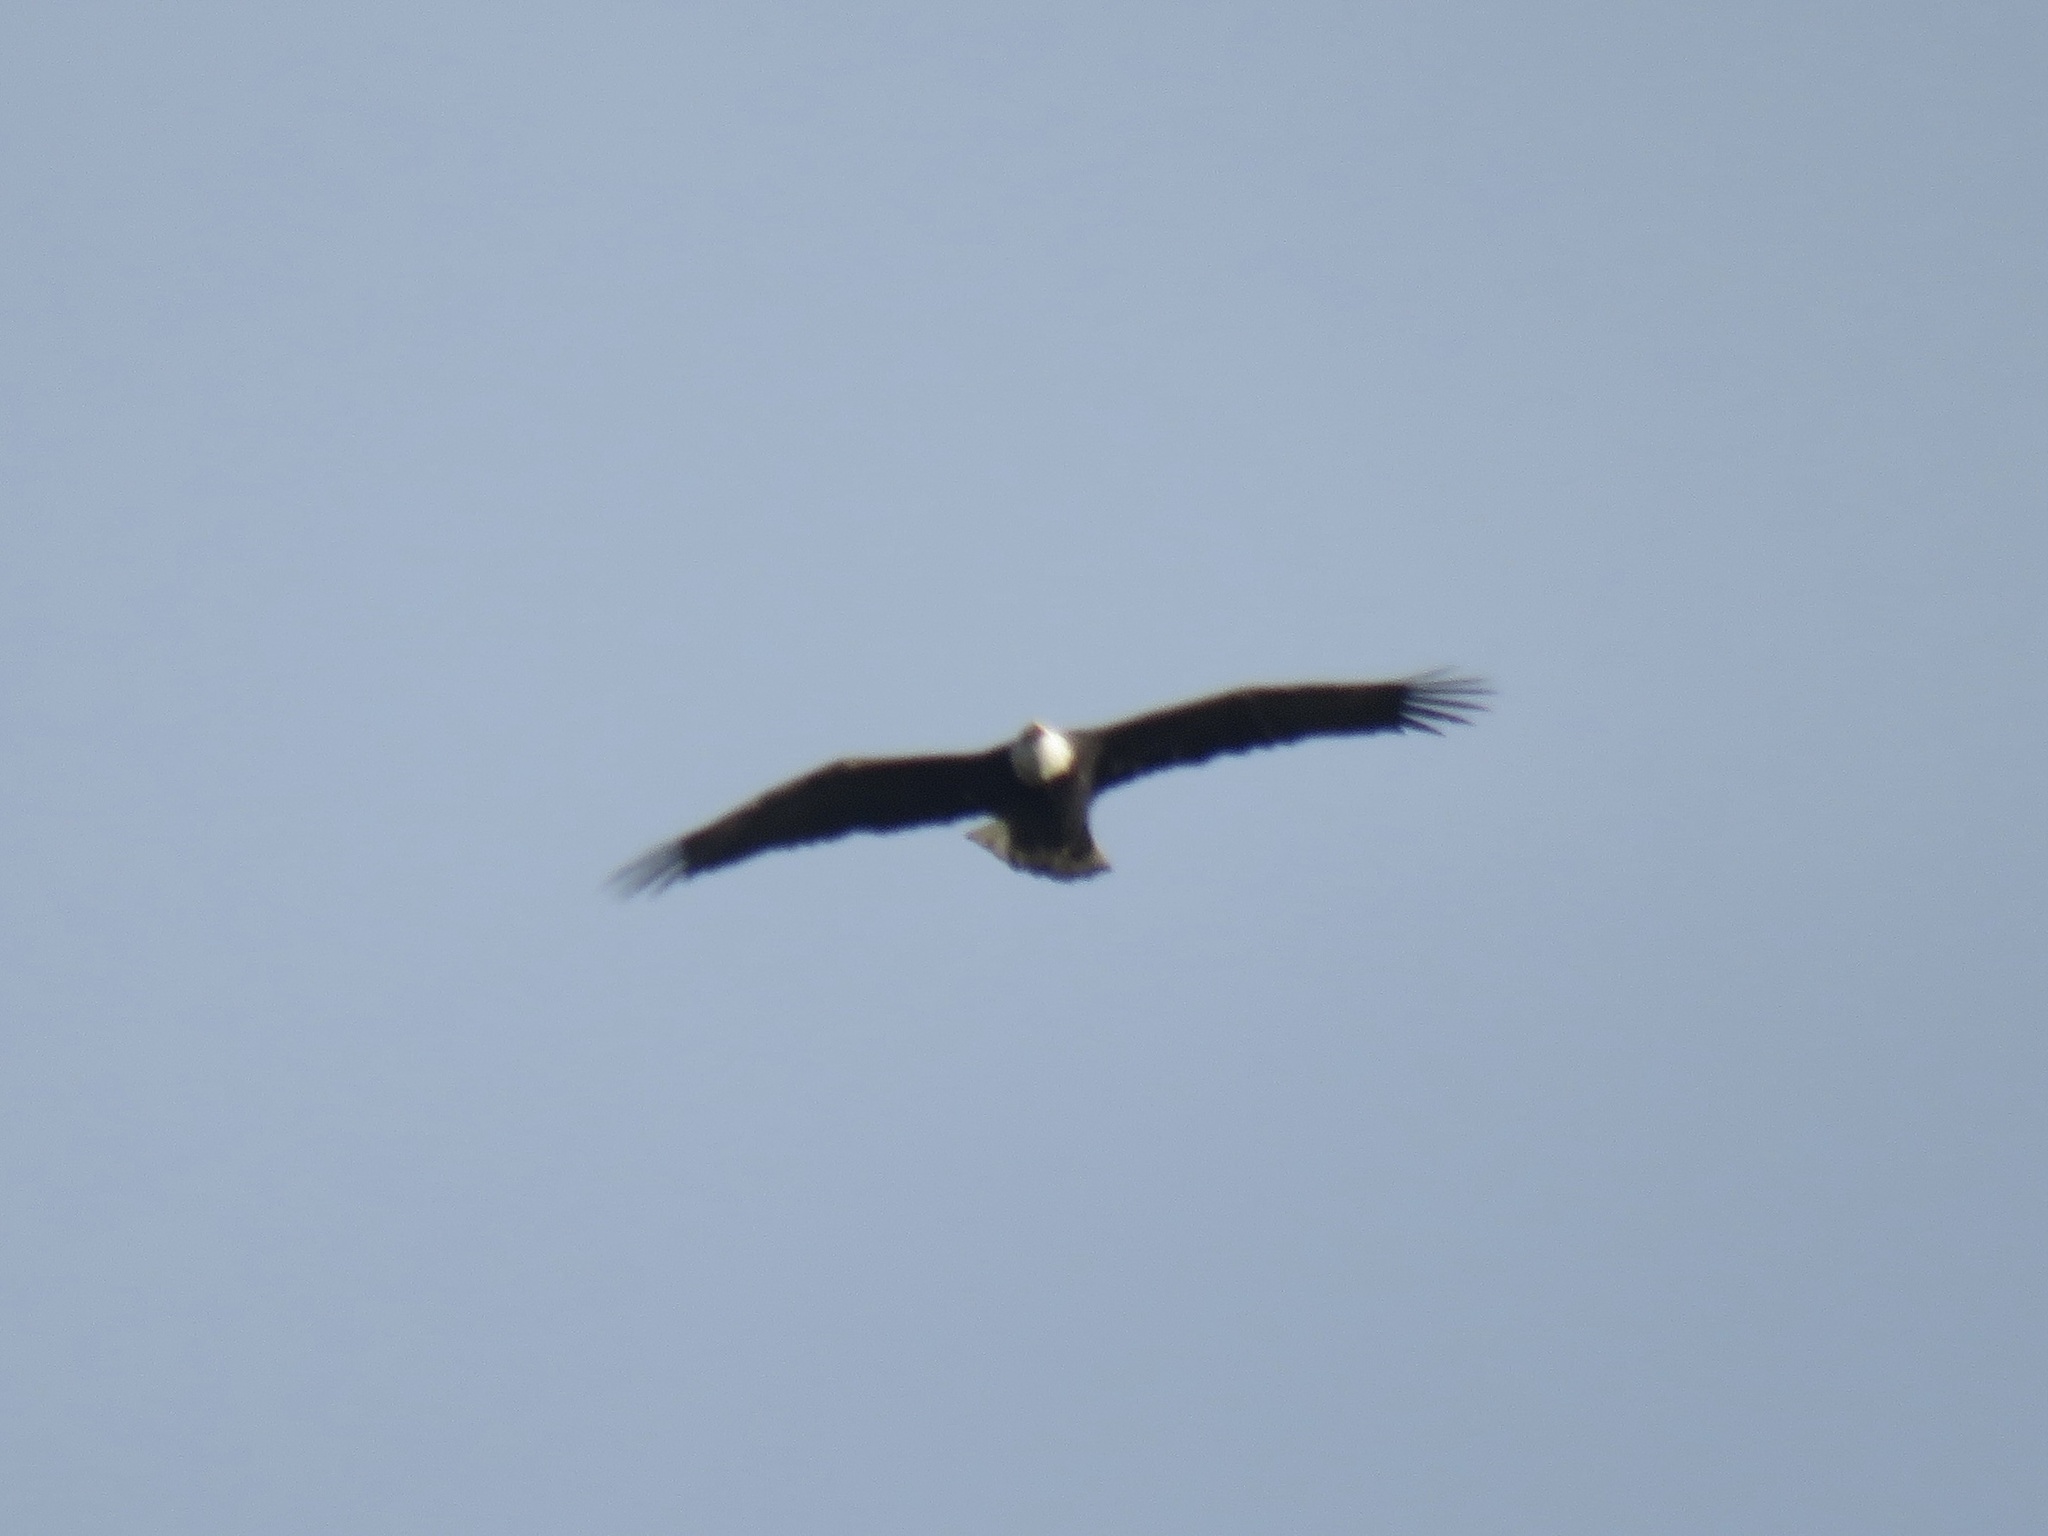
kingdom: Animalia
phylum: Chordata
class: Aves
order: Accipitriformes
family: Accipitridae
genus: Haliaeetus
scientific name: Haliaeetus leucocephalus
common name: Bald eagle
